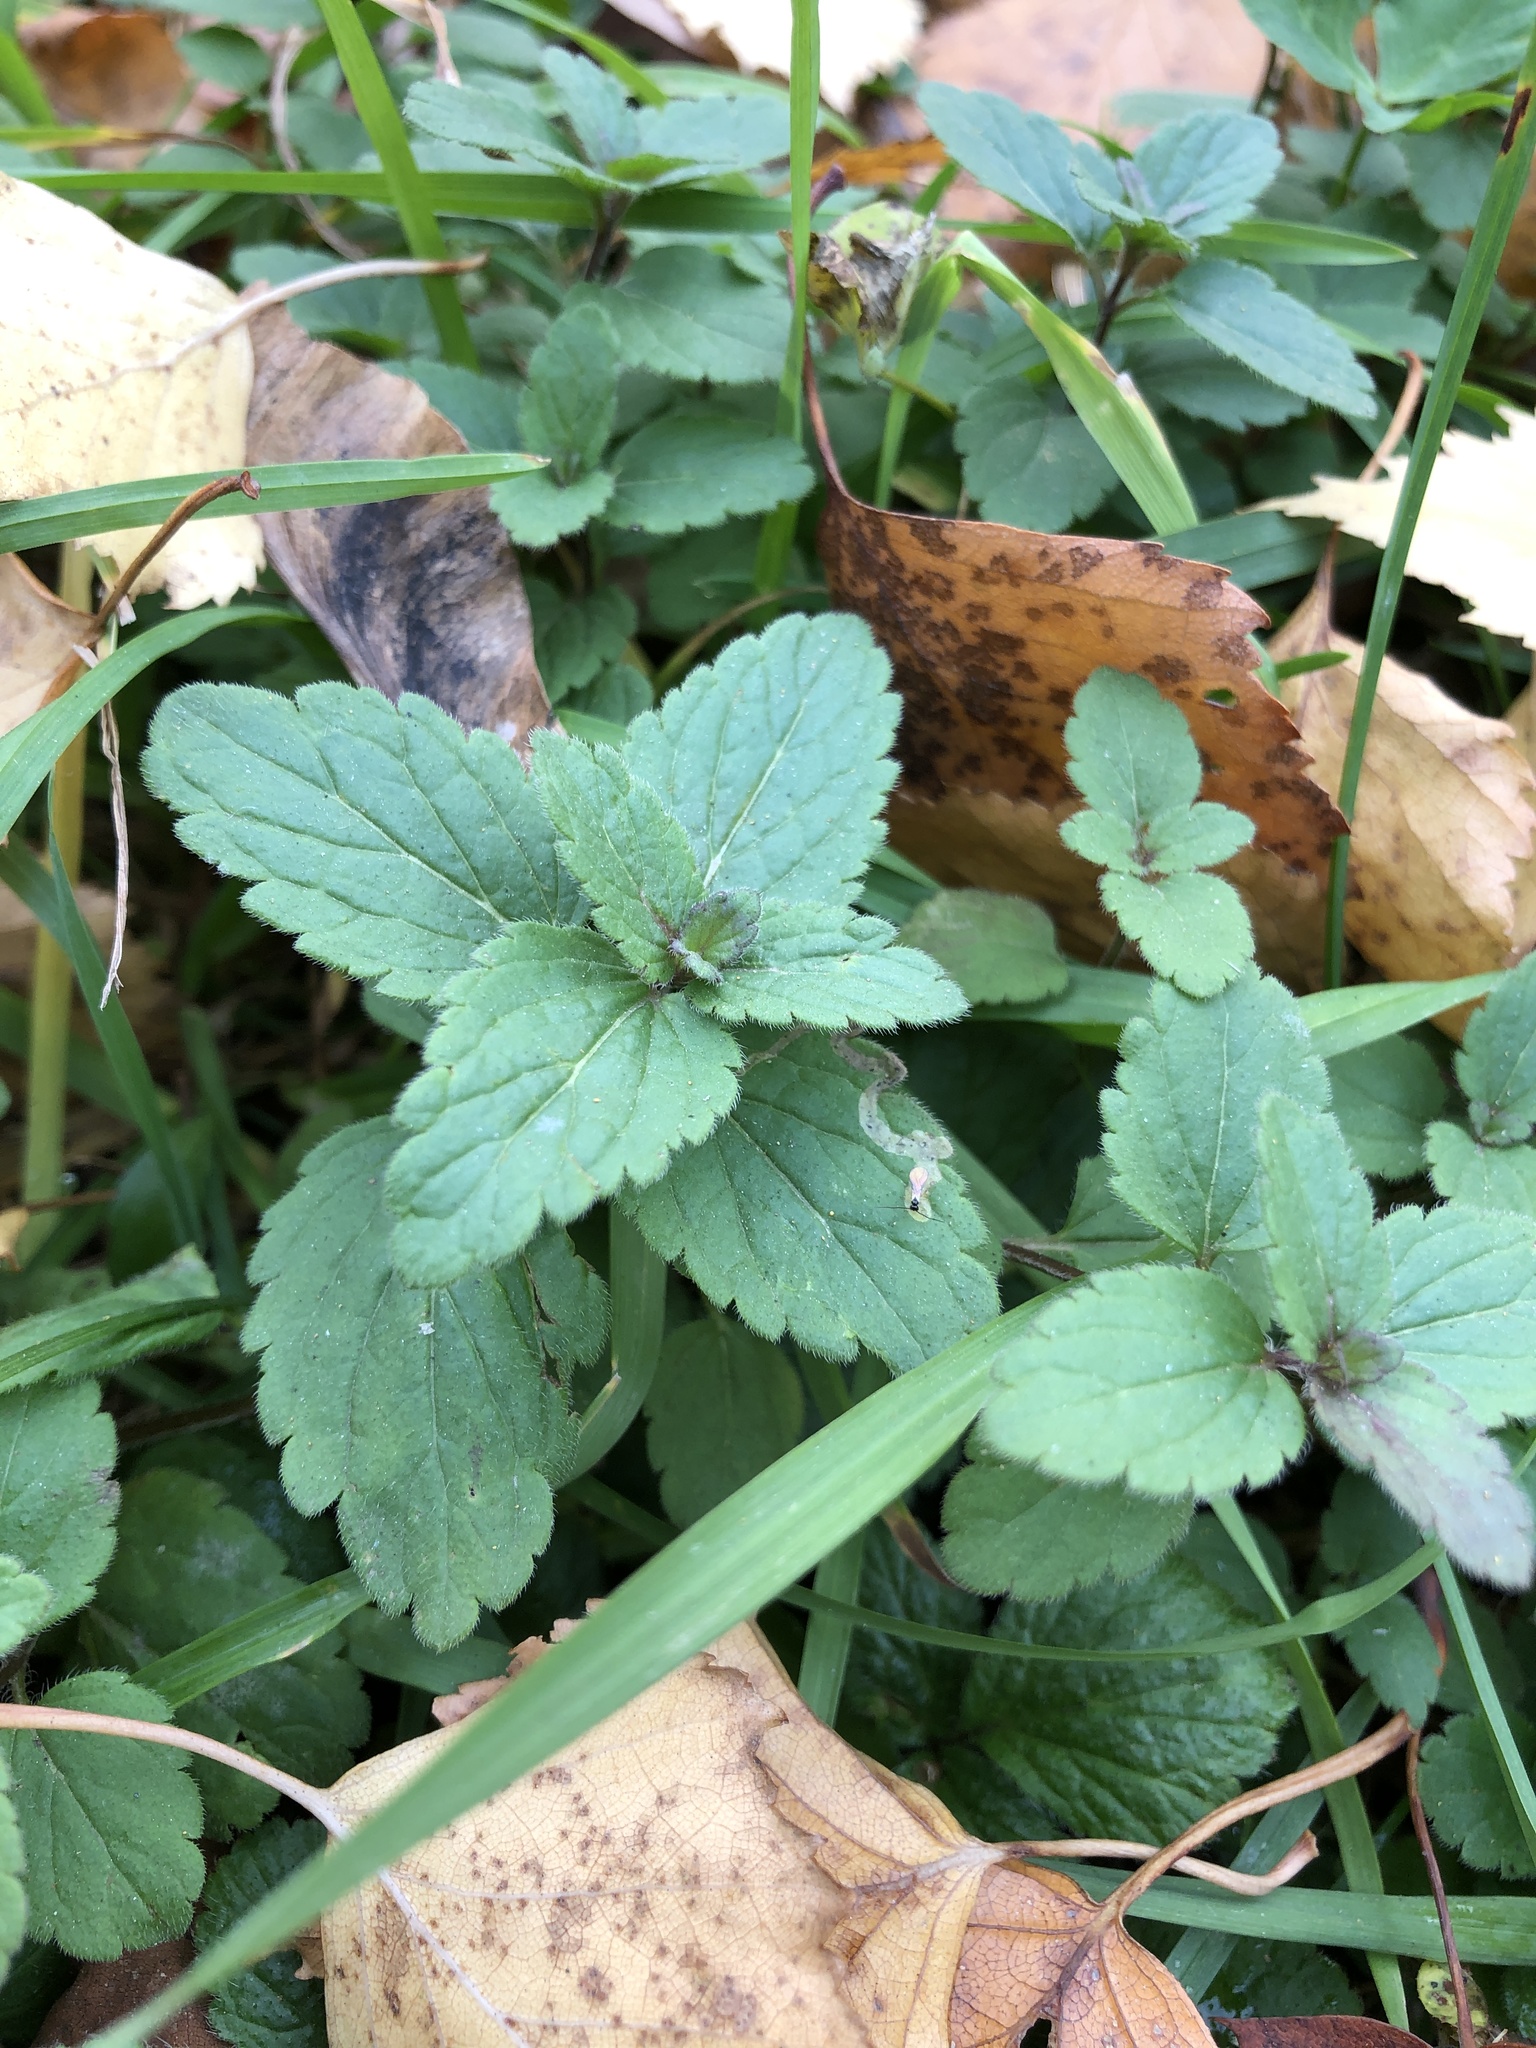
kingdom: Plantae
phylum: Tracheophyta
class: Magnoliopsida
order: Lamiales
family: Plantaginaceae
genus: Veronica
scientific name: Veronica chamaedrys
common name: Germander speedwell
